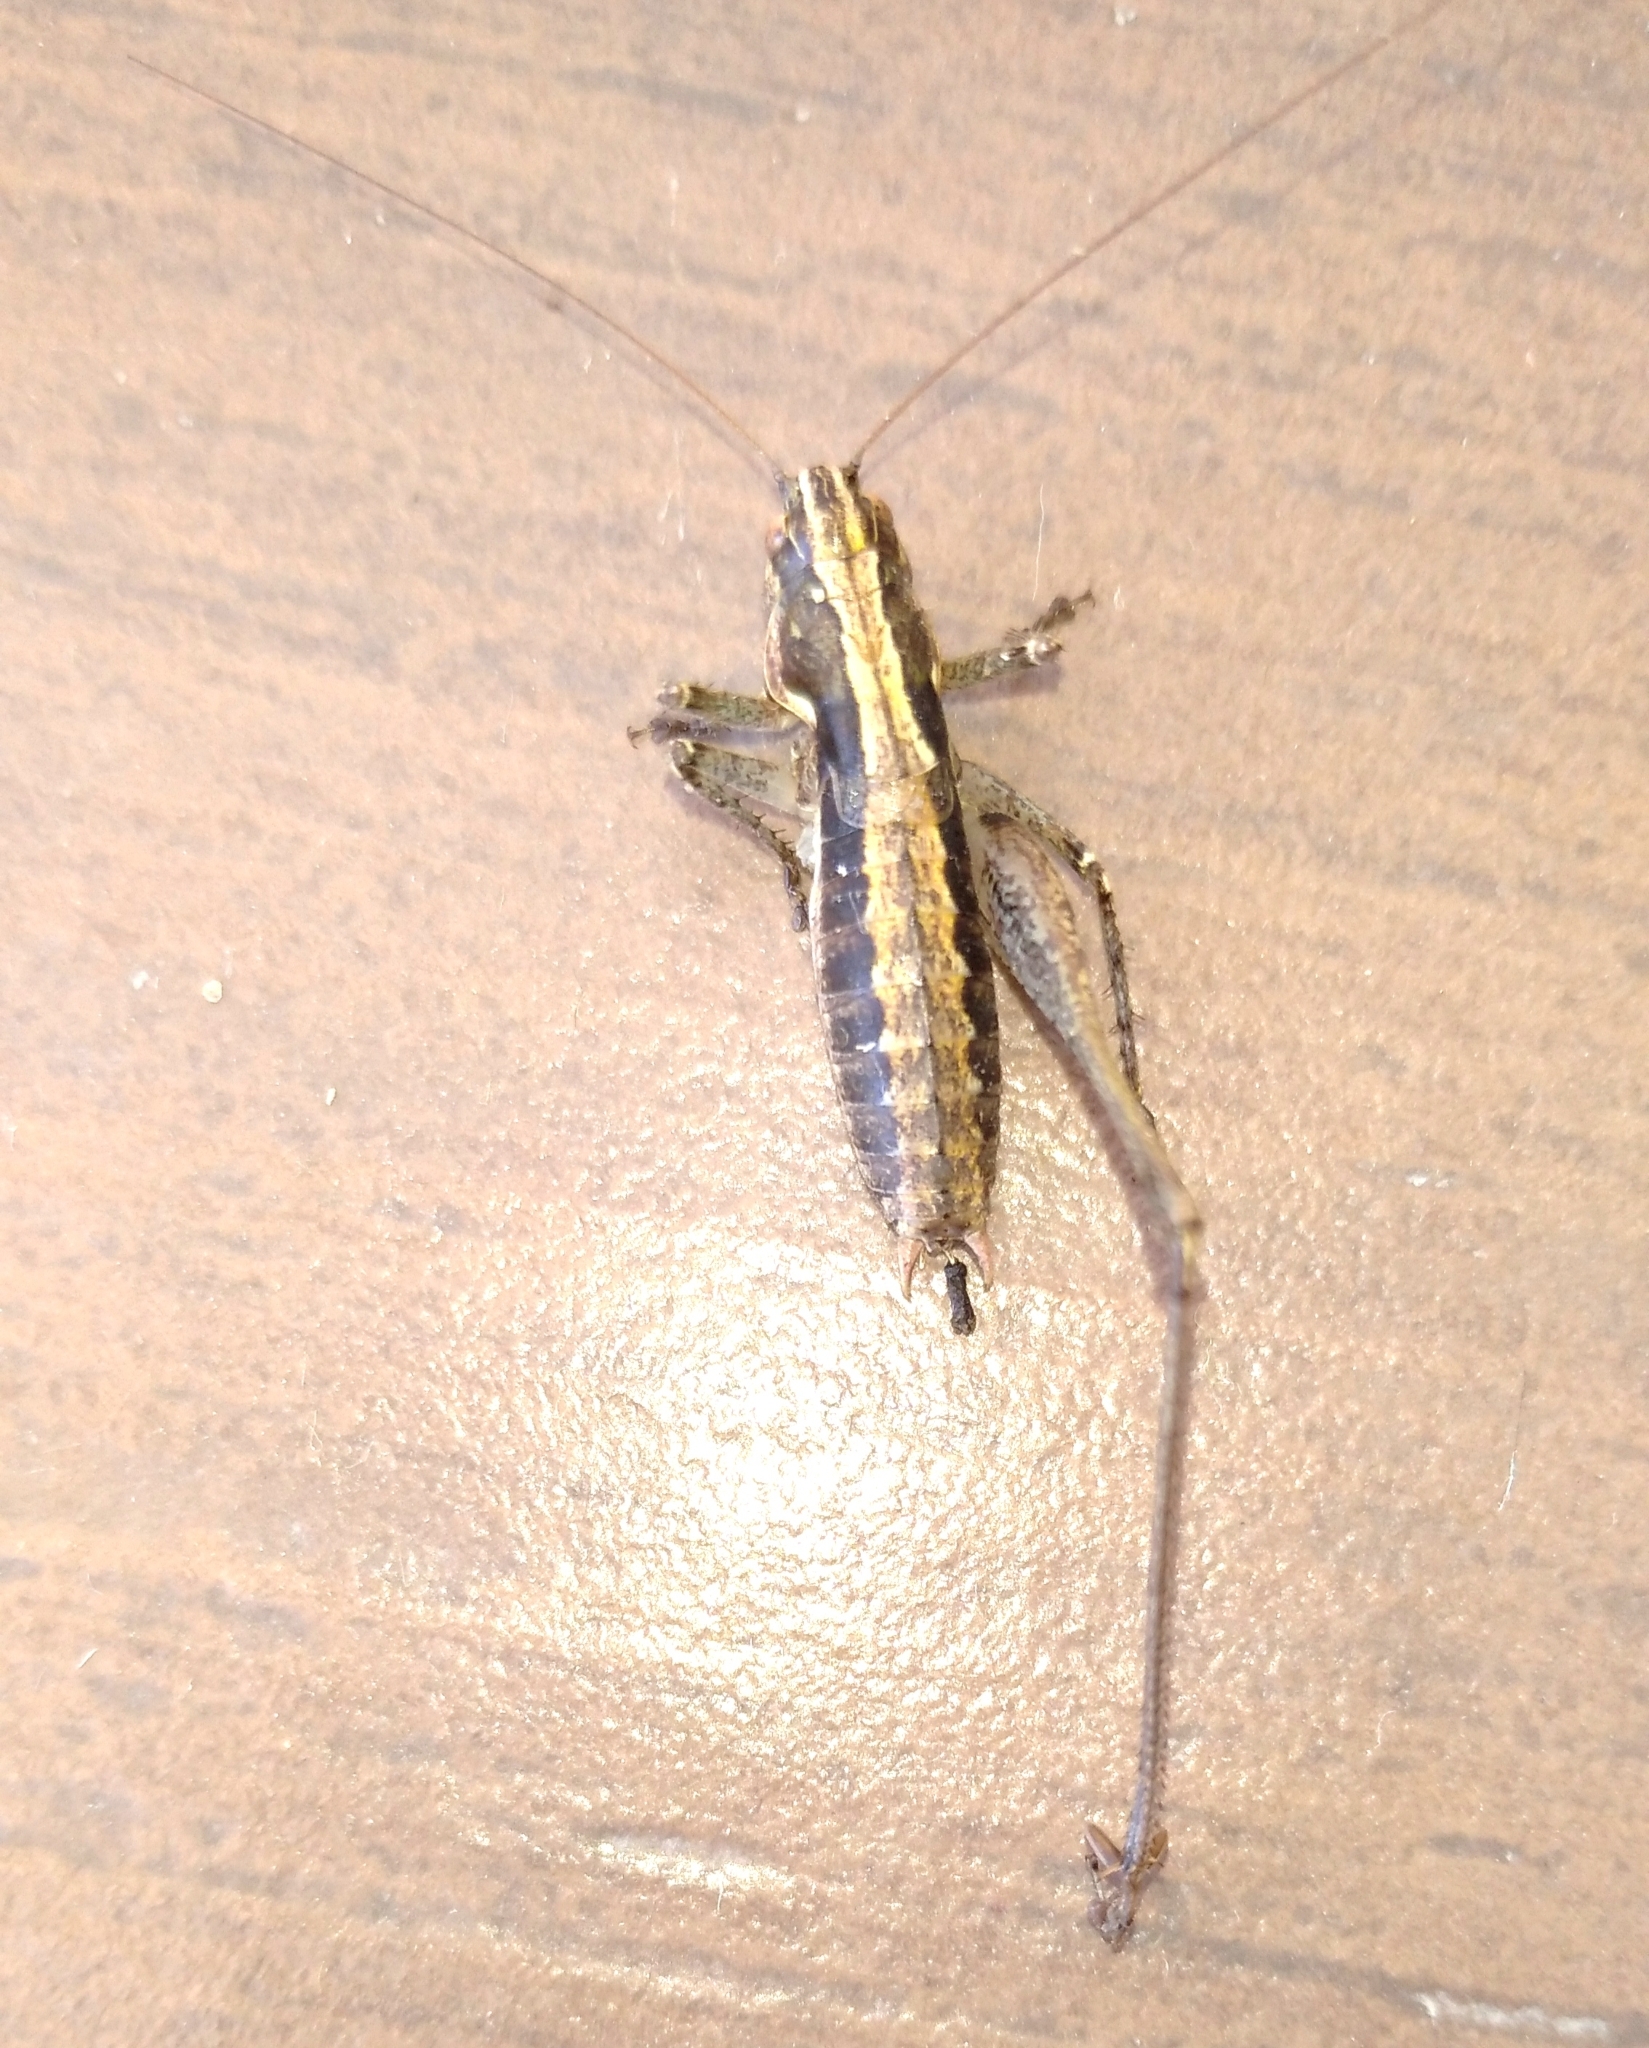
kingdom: Animalia
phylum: Arthropoda
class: Insecta
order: Orthoptera
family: Tettigoniidae
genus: Rhacocleis
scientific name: Rhacocleis germanica
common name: Mediterranean bush-cricket
